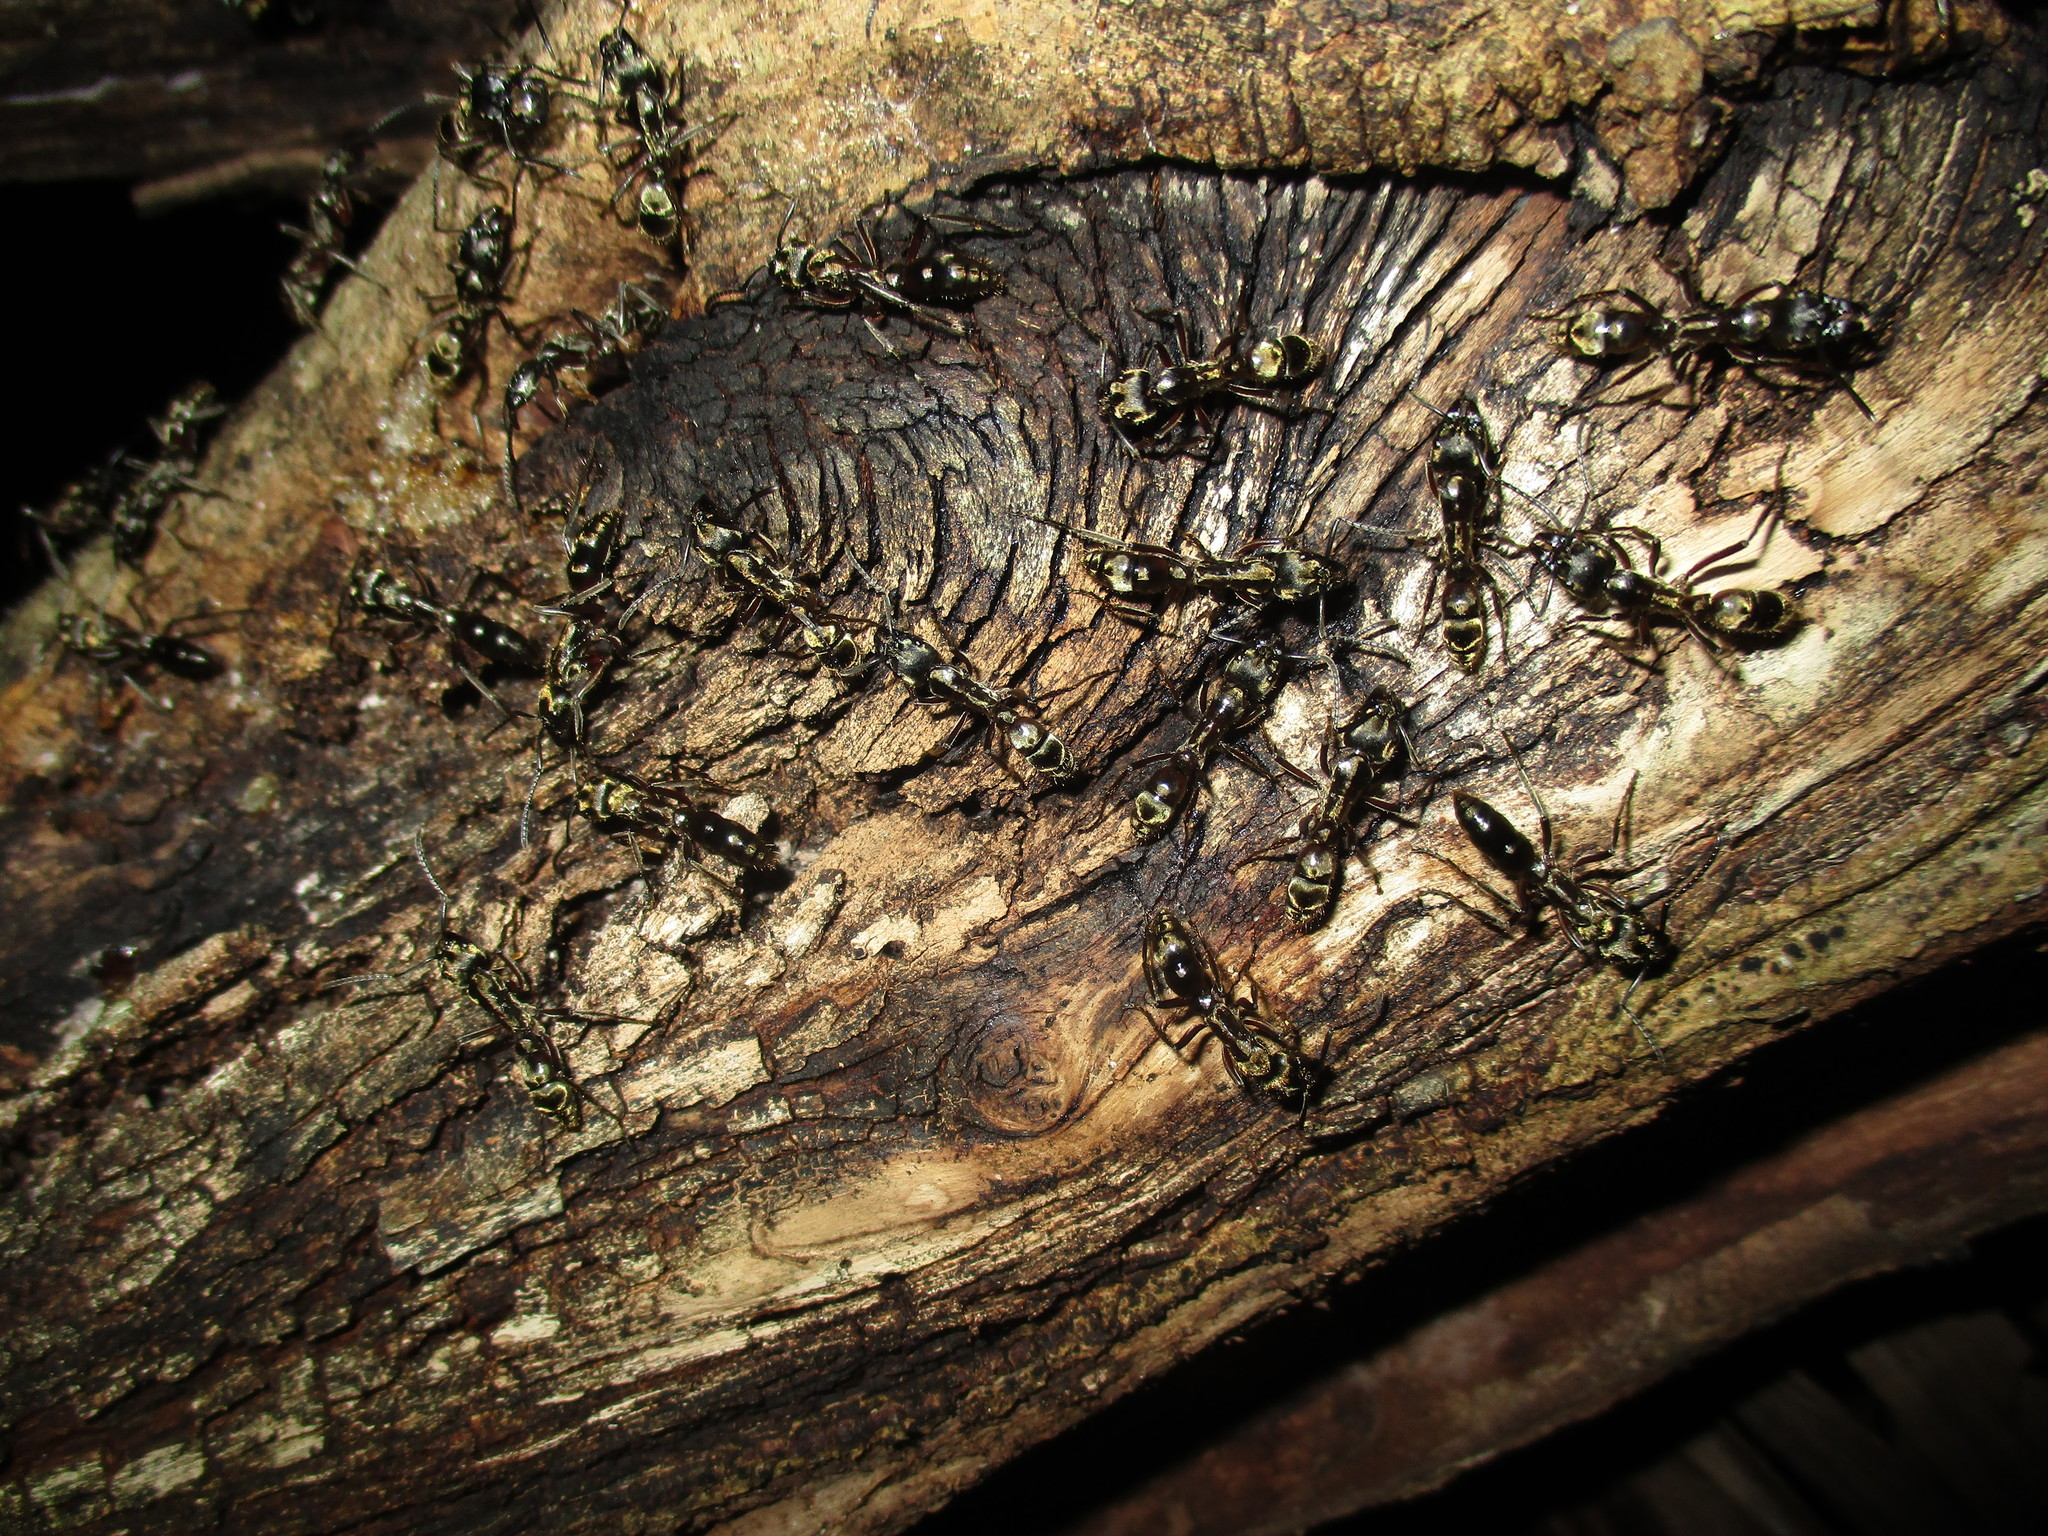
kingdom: Animalia
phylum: Arthropoda
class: Insecta
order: Hymenoptera
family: Formicidae
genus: Pachycondyla
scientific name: Pachycondyla villosa
